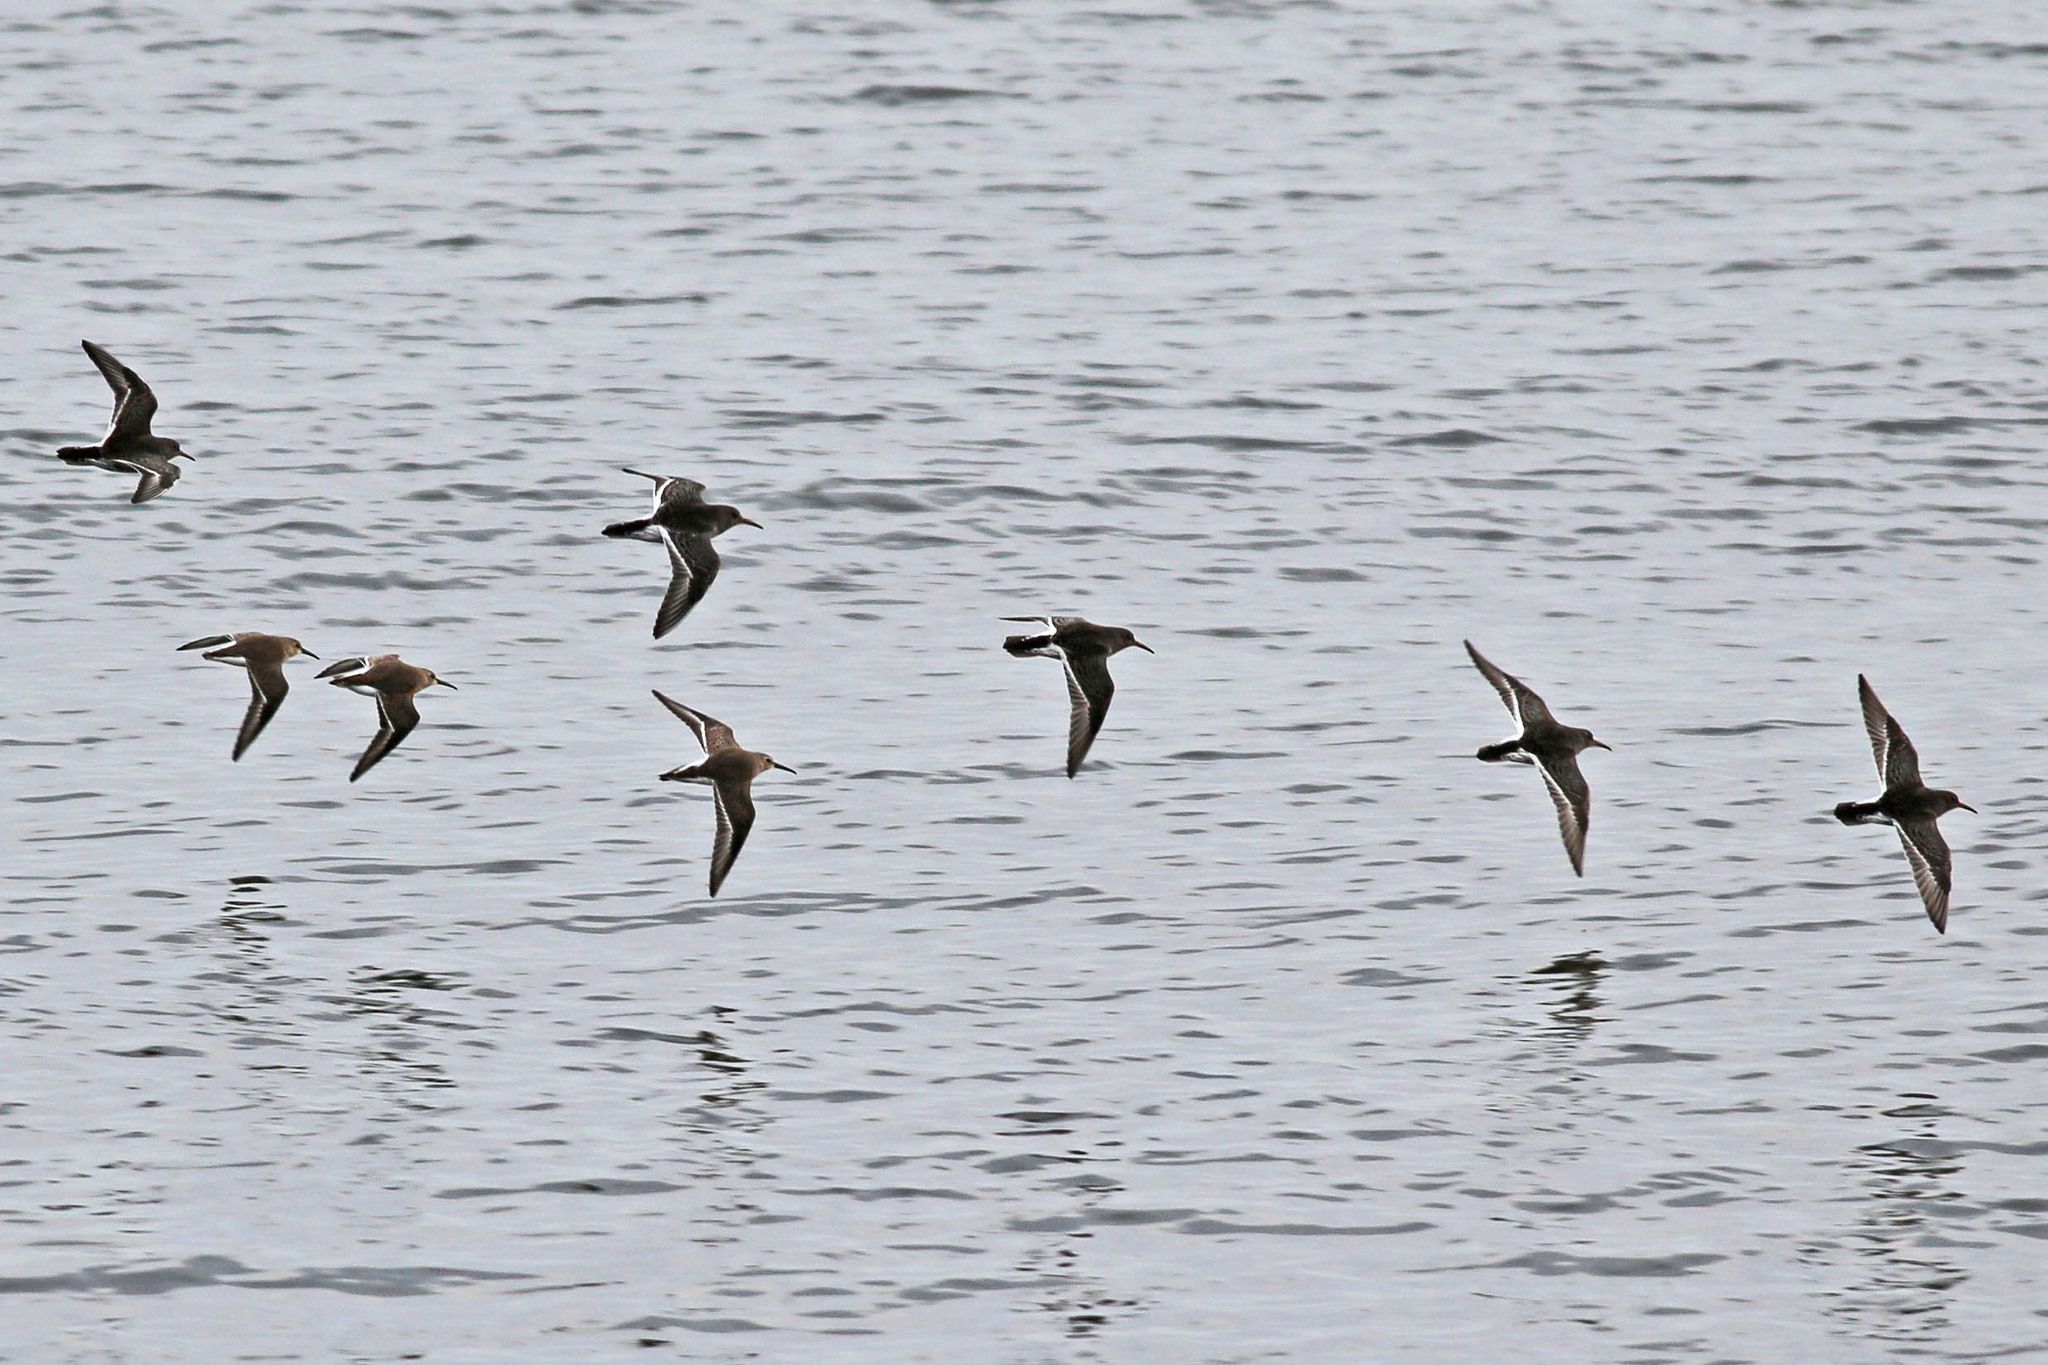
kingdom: Animalia
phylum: Chordata
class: Aves
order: Charadriiformes
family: Scolopacidae
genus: Calidris
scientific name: Calidris maritima
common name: Purple sandpiper
